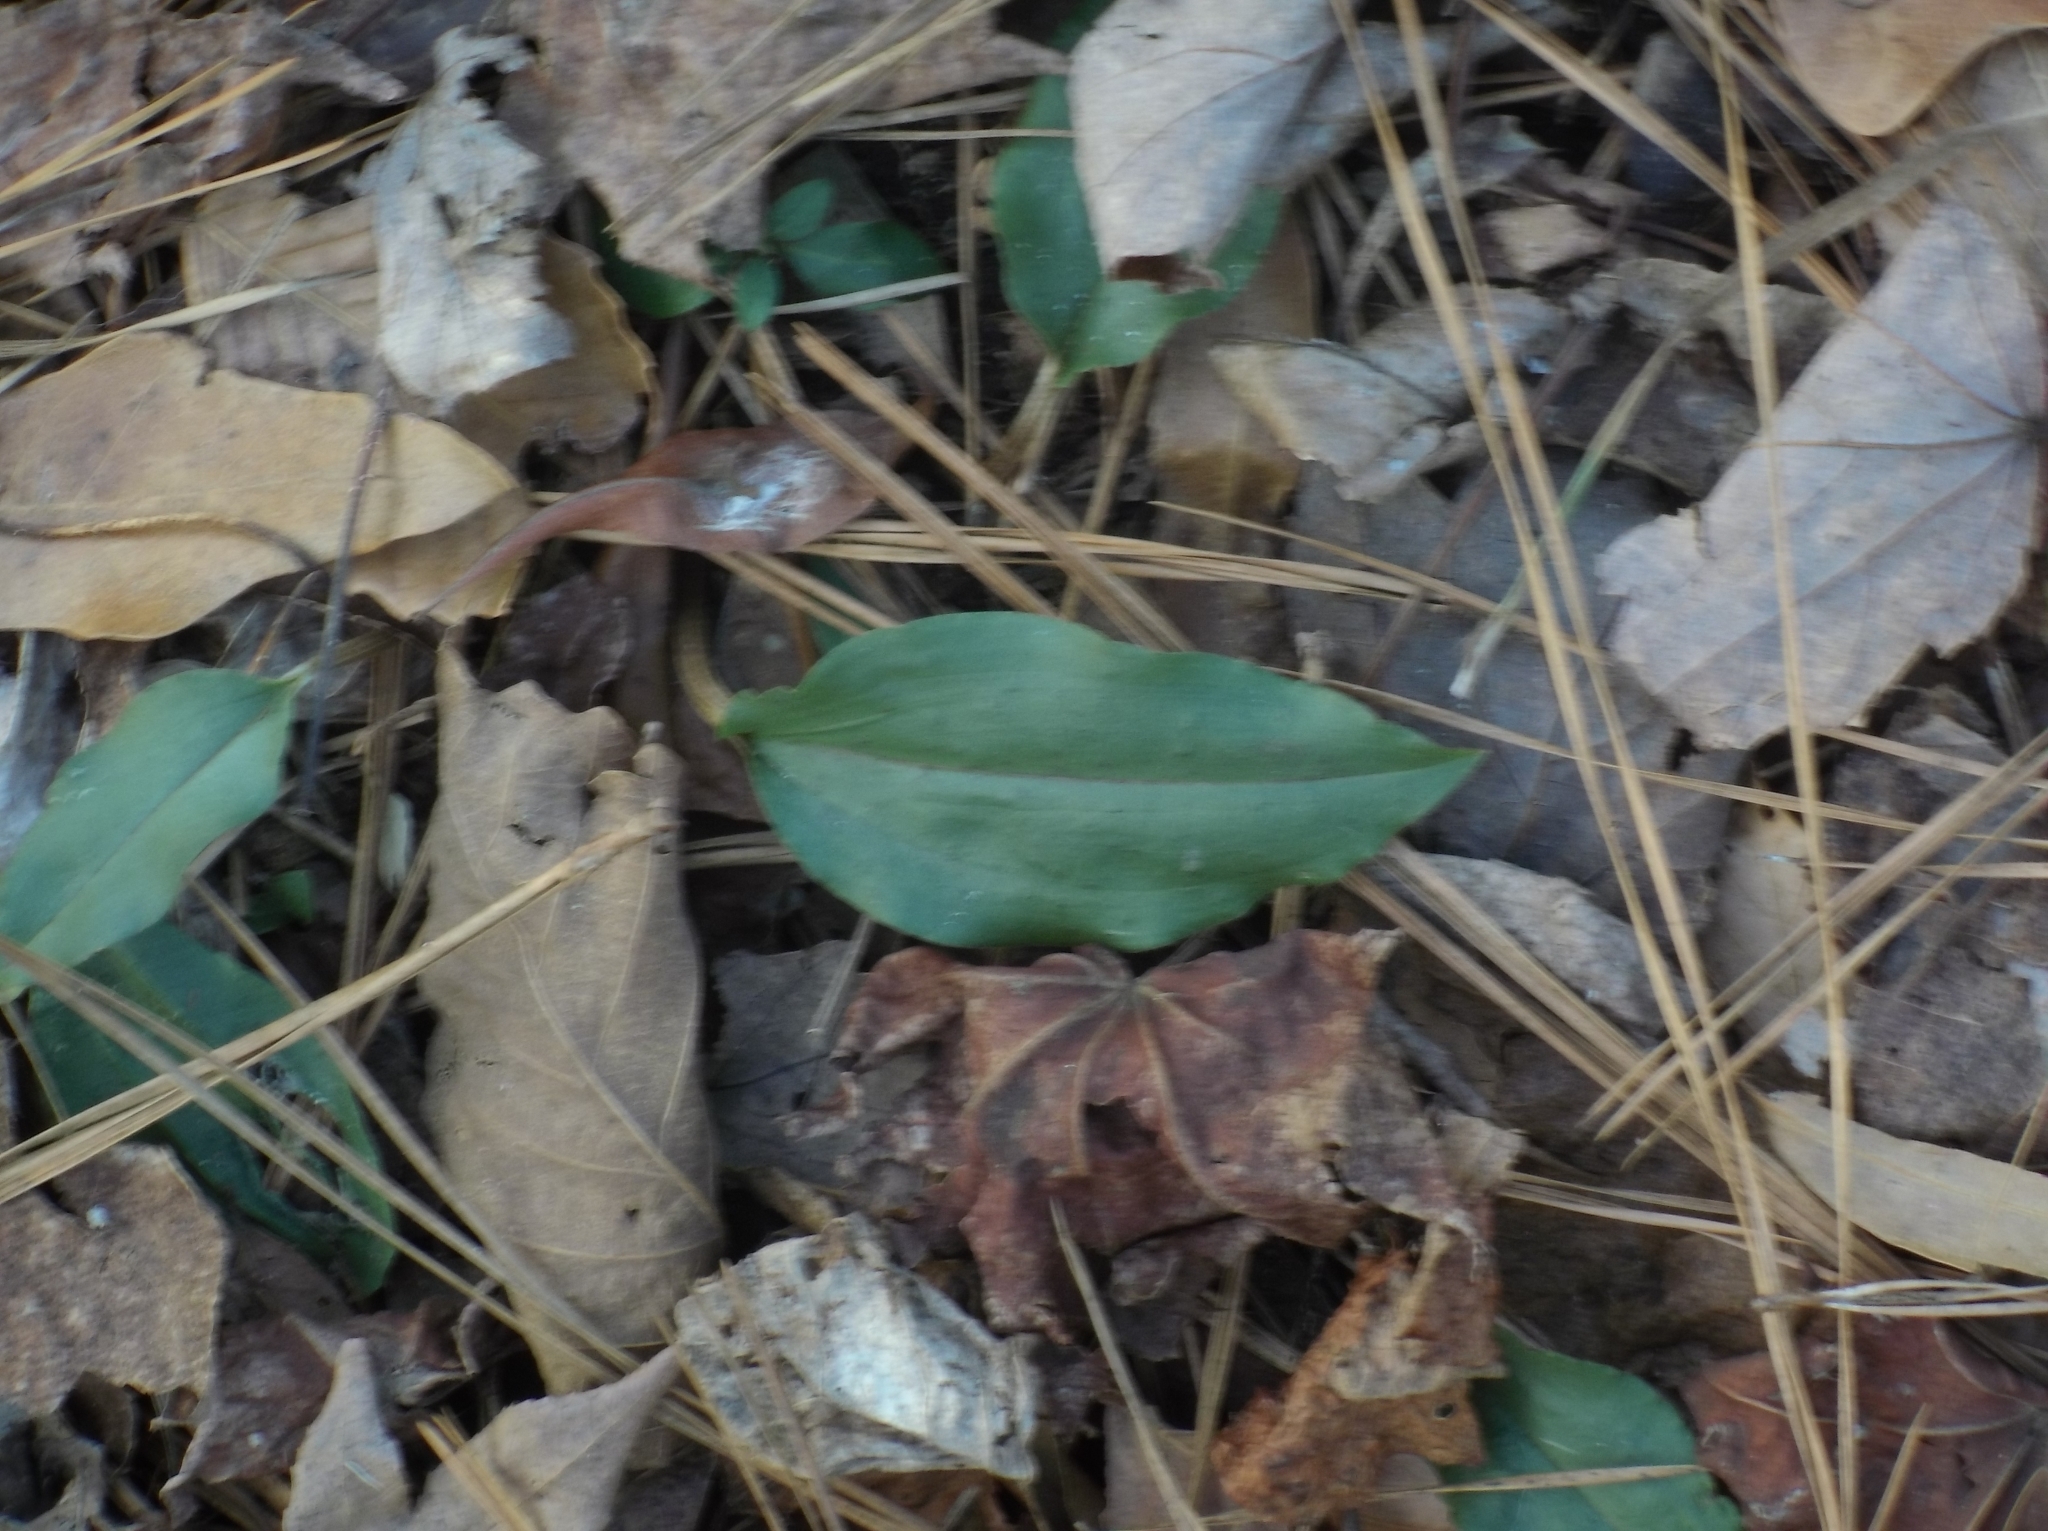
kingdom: Plantae
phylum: Tracheophyta
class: Liliopsida
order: Asparagales
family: Orchidaceae
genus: Tipularia
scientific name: Tipularia discolor
